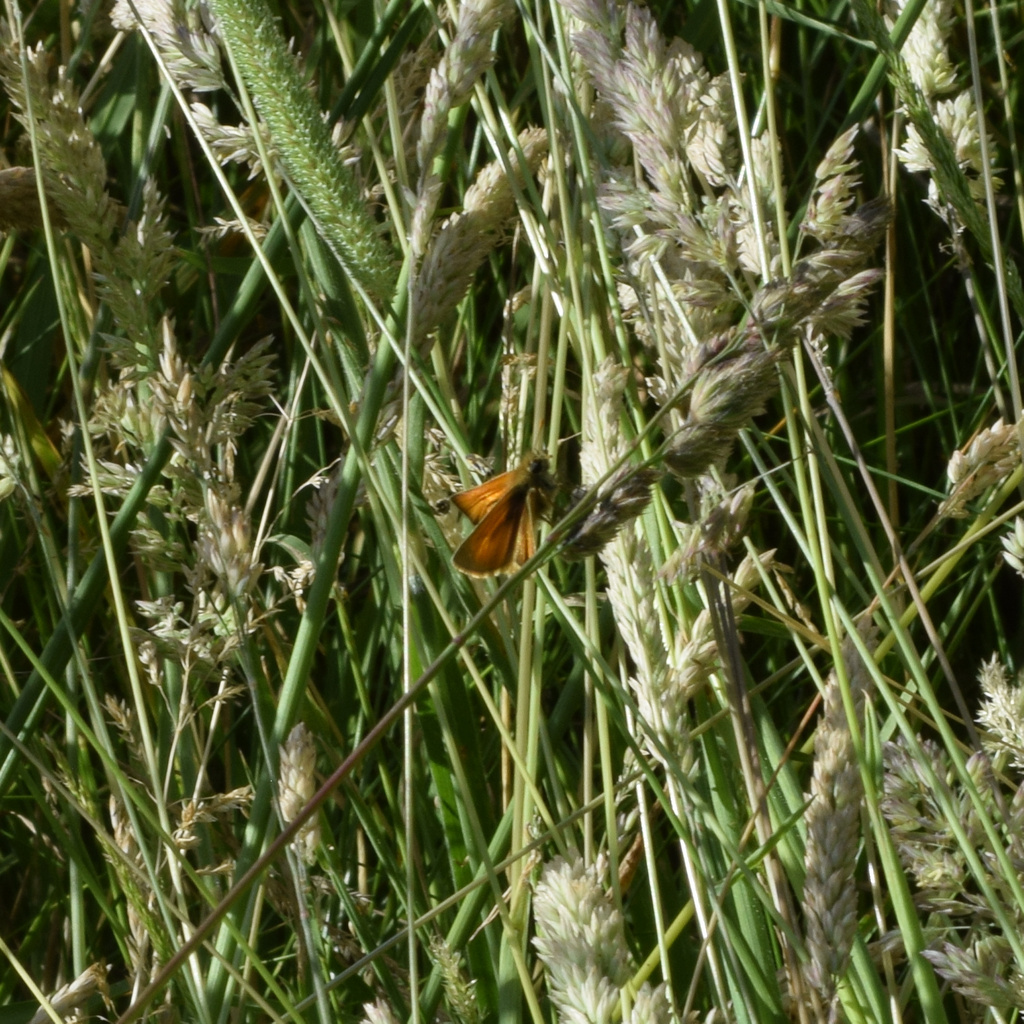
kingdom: Animalia
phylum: Arthropoda
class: Insecta
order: Lepidoptera
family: Hesperiidae
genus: Thymelicus
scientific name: Thymelicus sylvestris
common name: Small skipper
